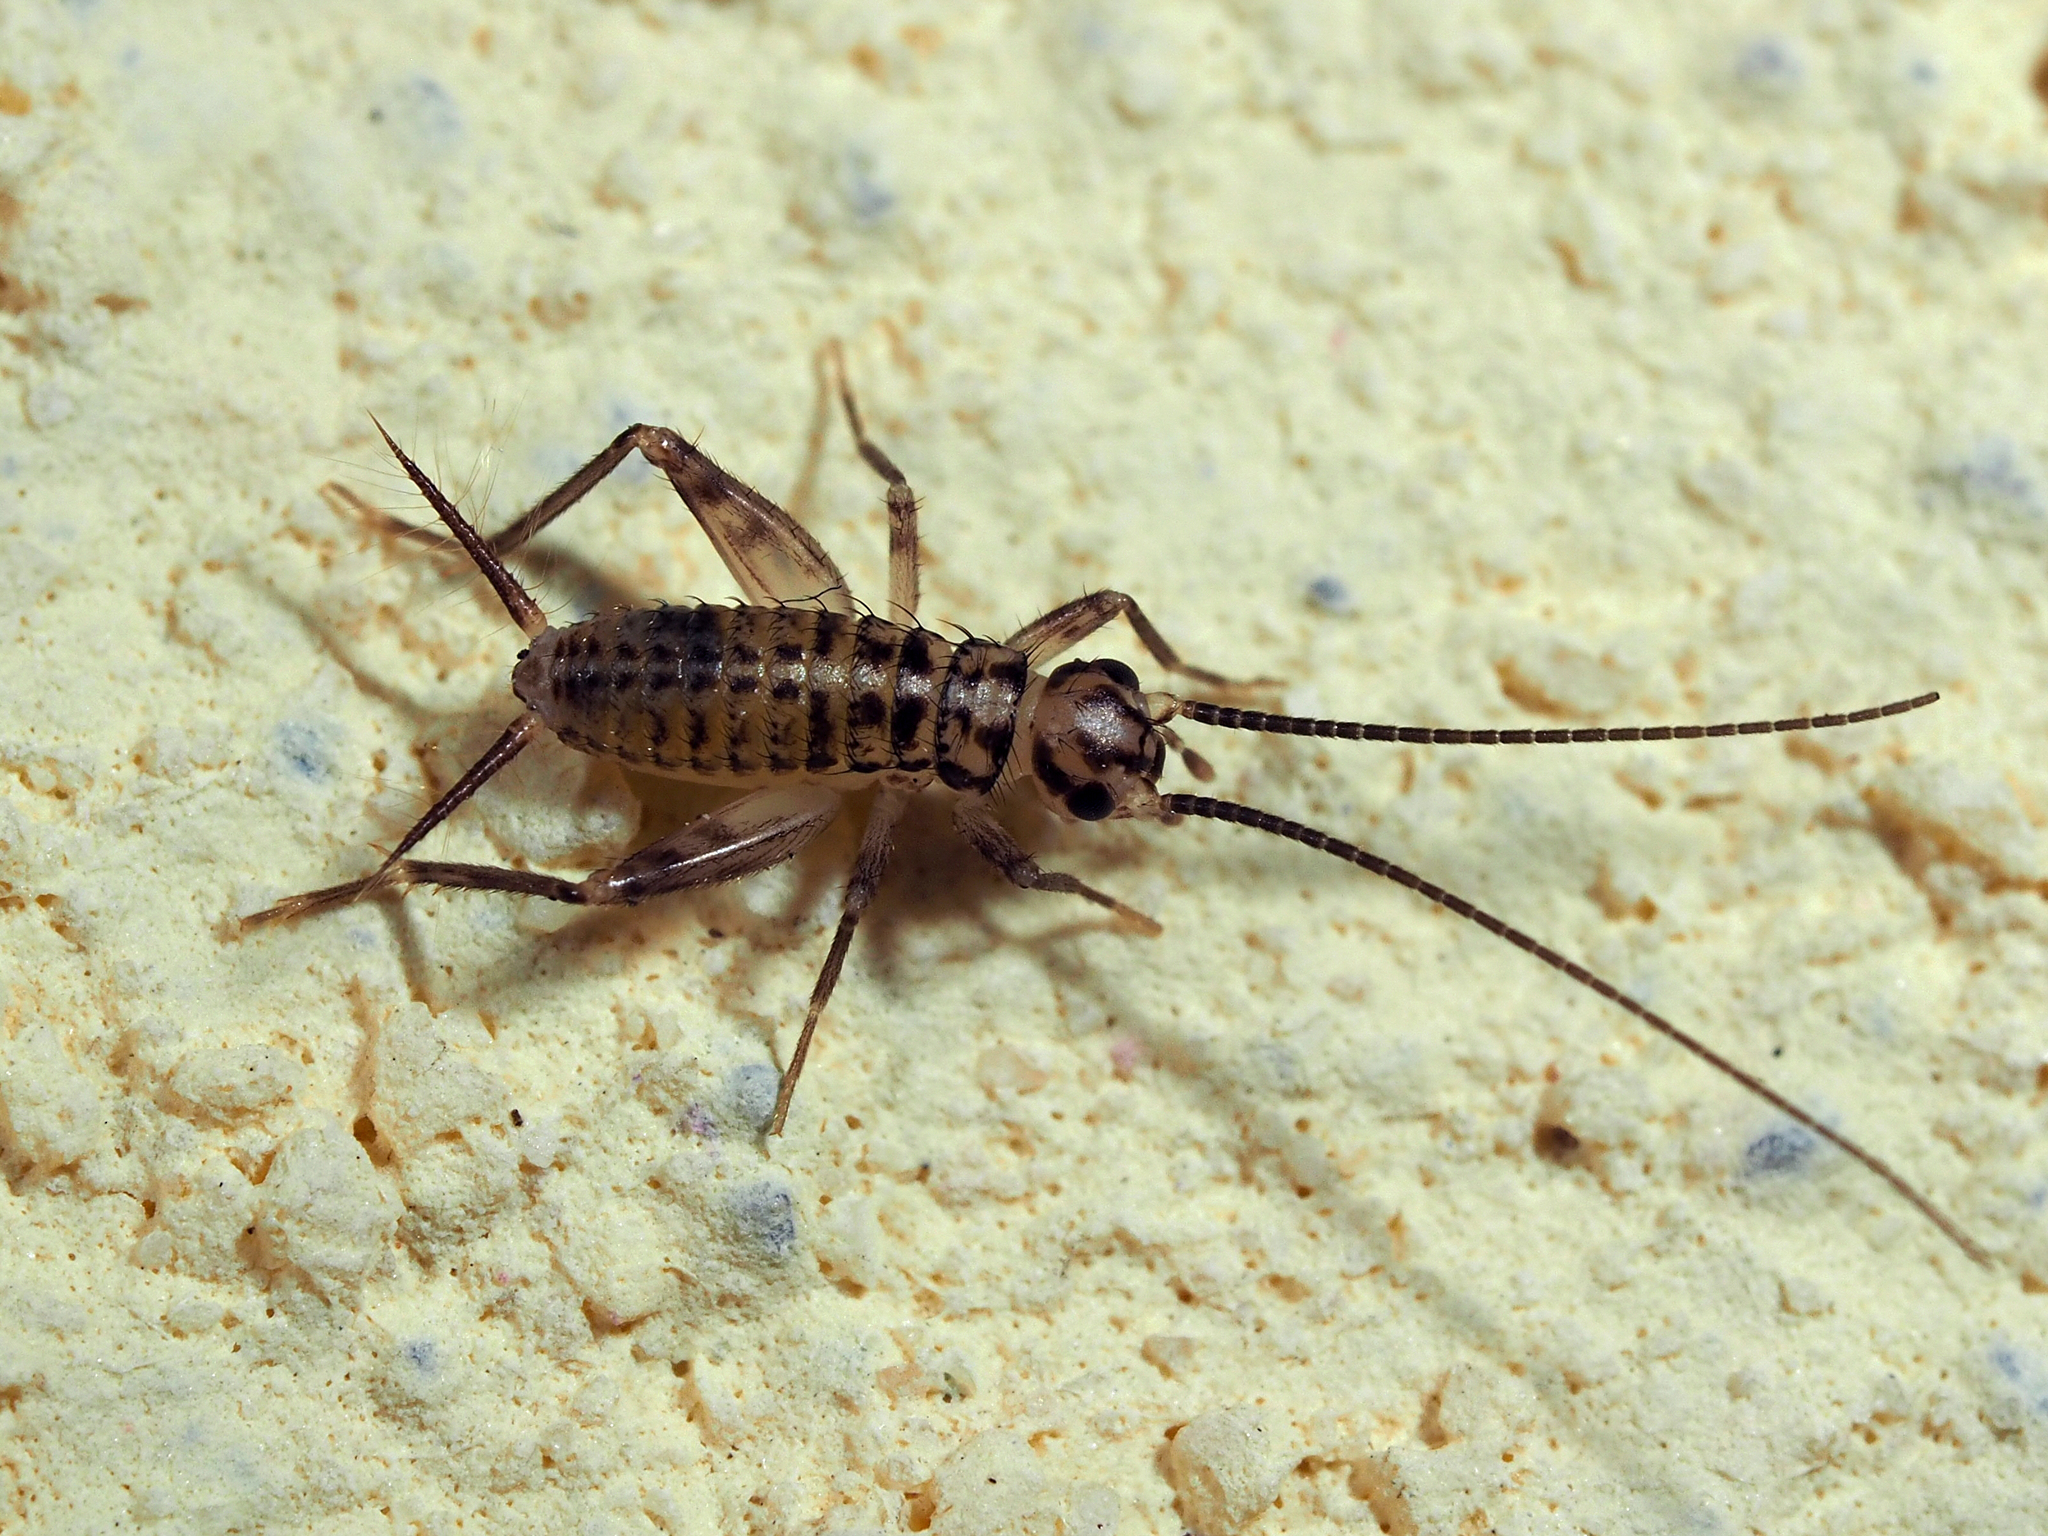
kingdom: Animalia
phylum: Arthropoda
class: Insecta
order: Orthoptera
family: Gryllidae
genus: Gryllomorpha
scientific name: Gryllomorpha dalmatina
